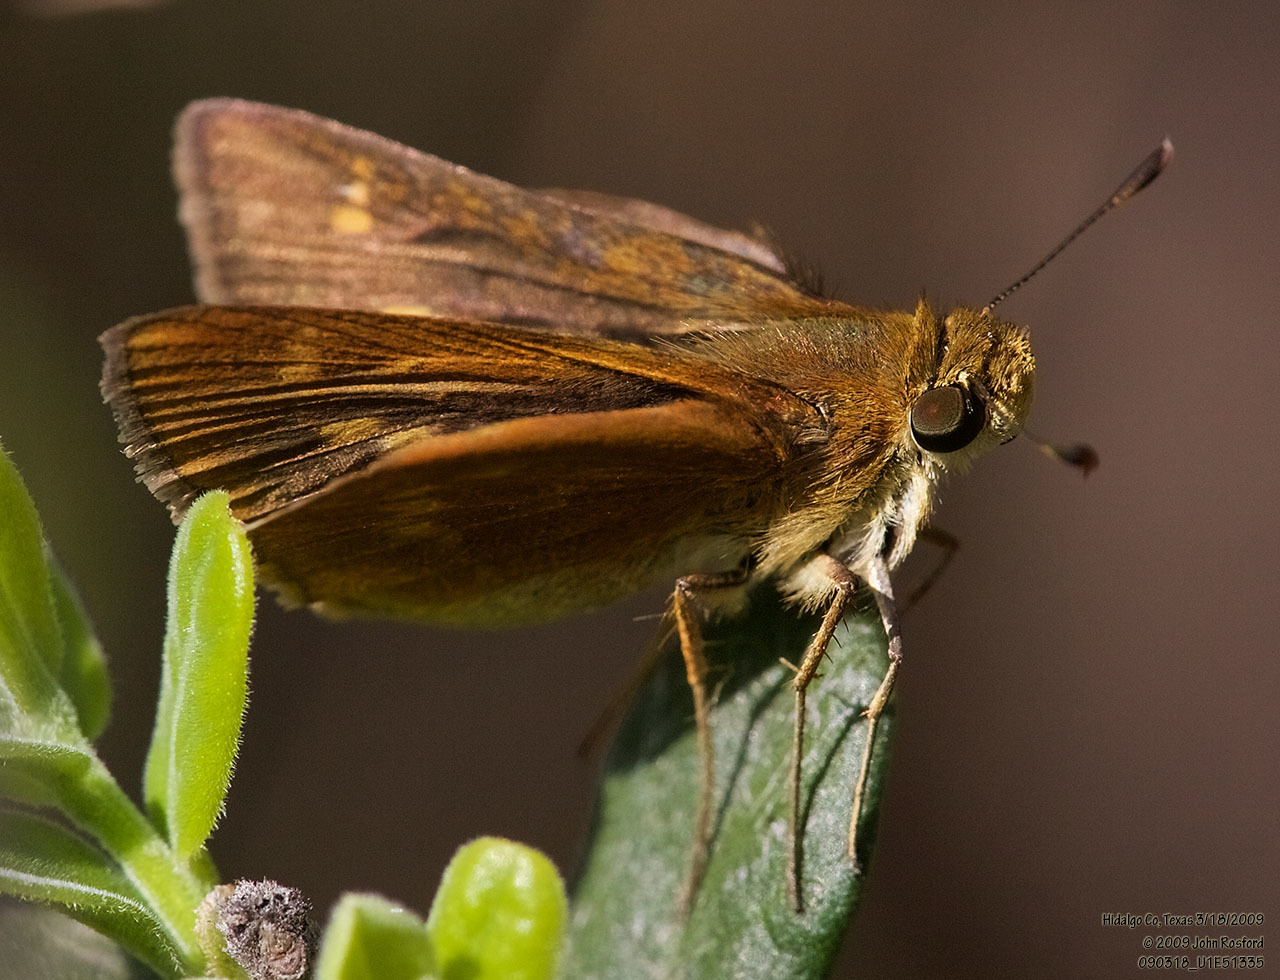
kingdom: Animalia
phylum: Arthropoda
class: Insecta
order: Lepidoptera
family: Hesperiidae
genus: Polites
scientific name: Polites otho
